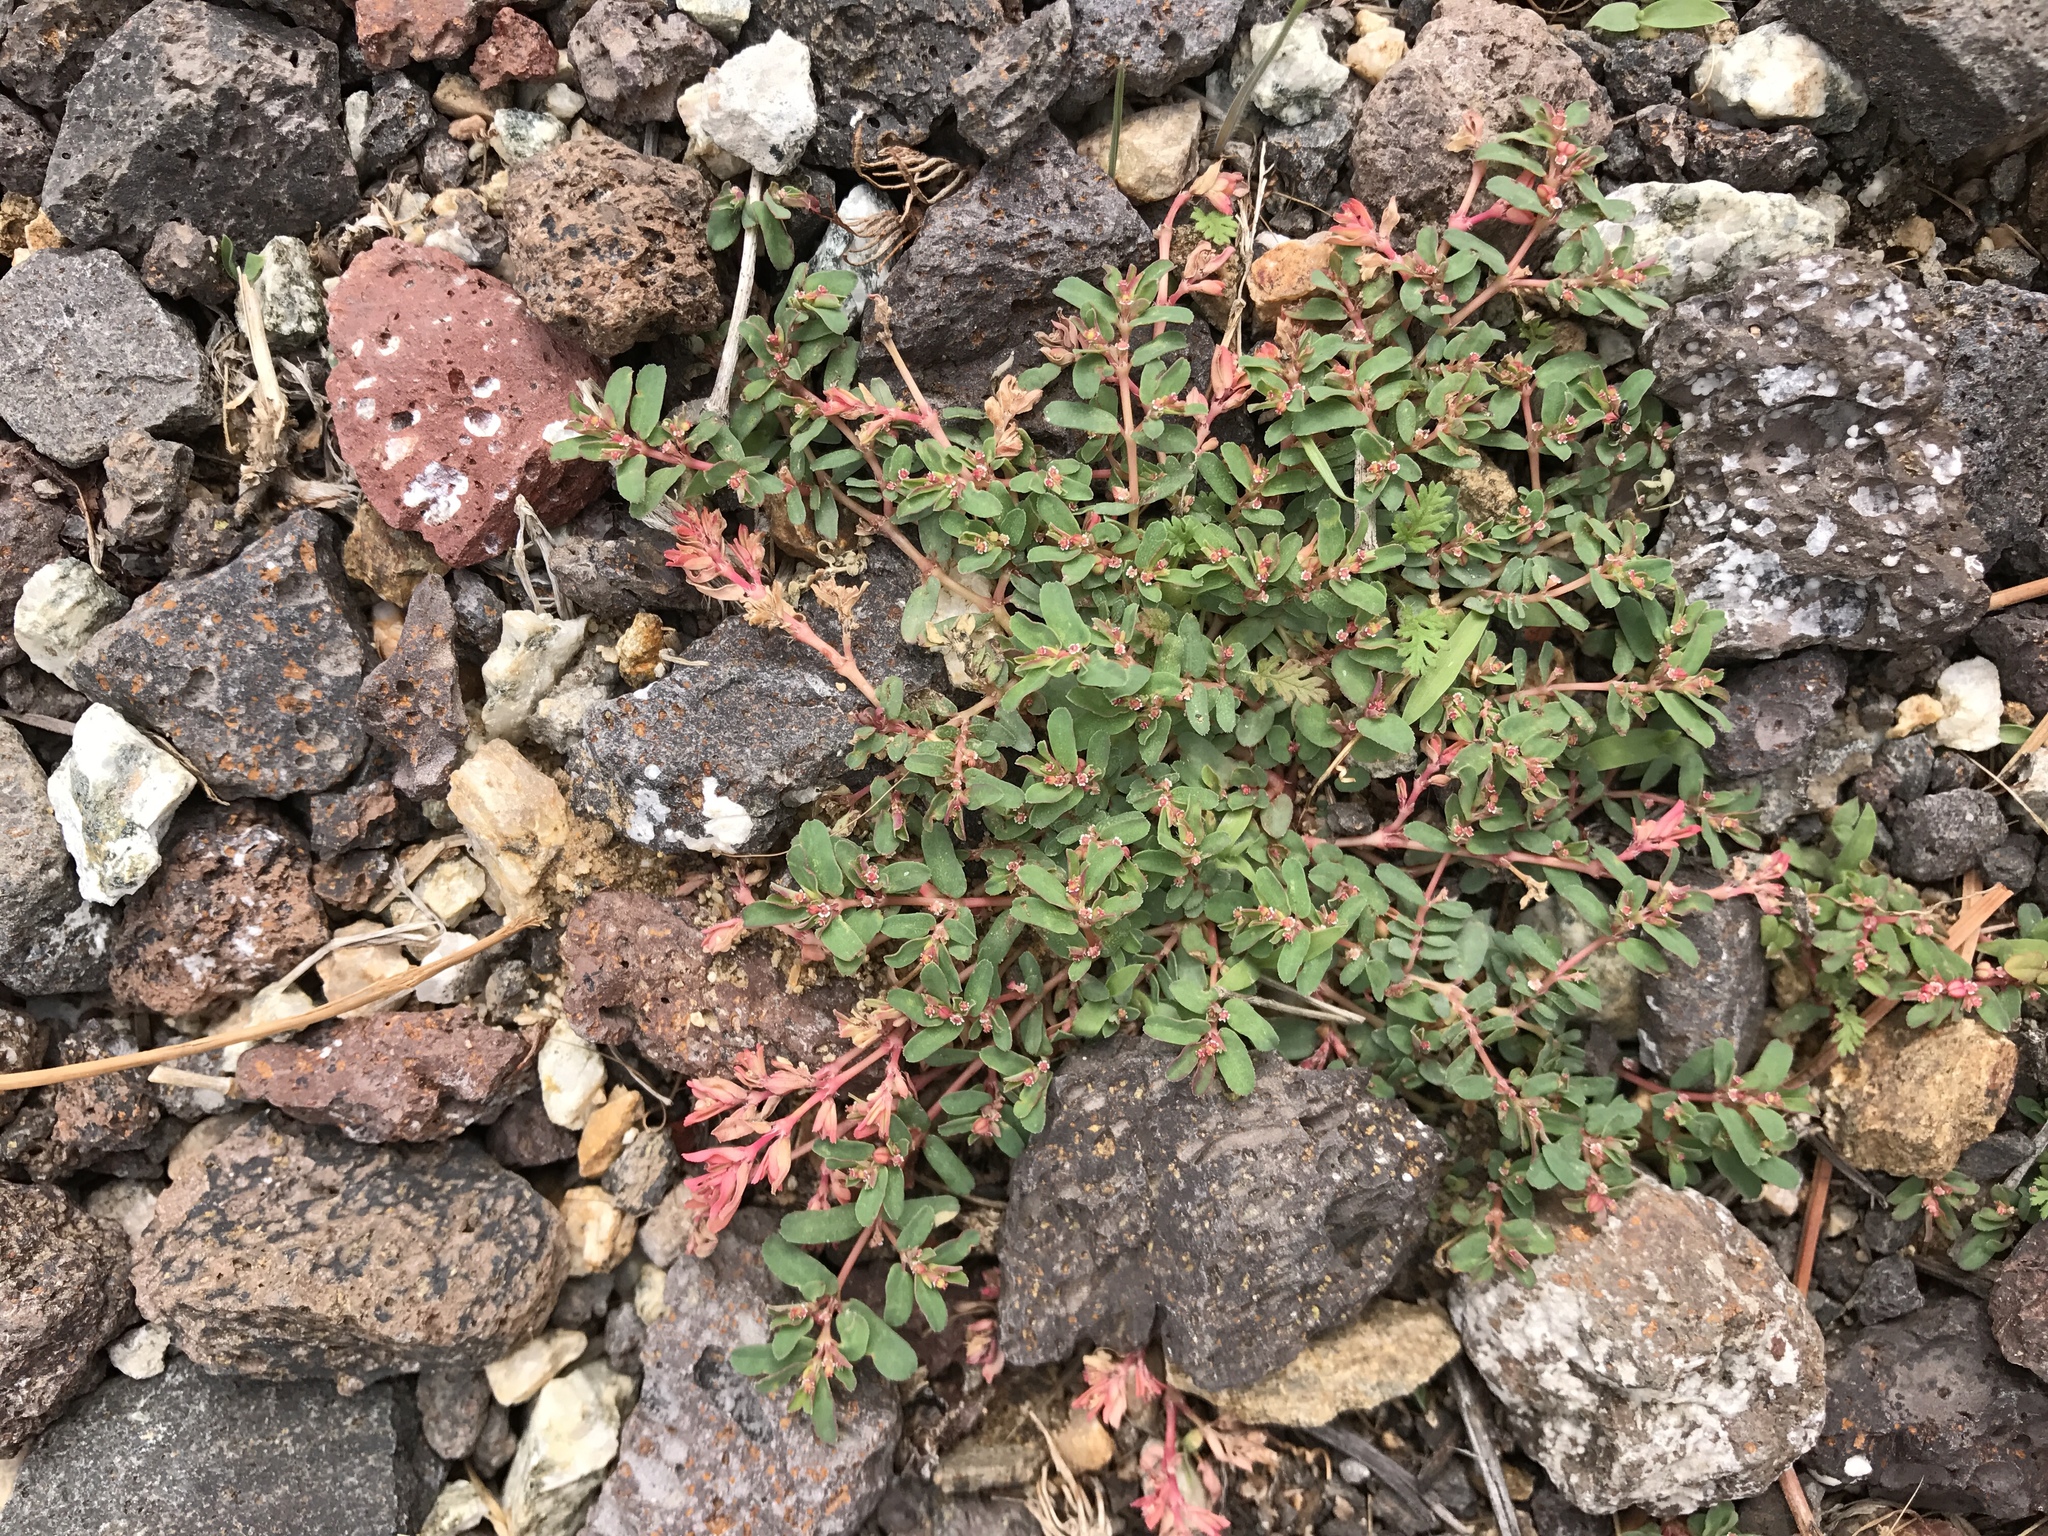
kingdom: Plantae
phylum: Tracheophyta
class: Magnoliopsida
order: Malpighiales
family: Euphorbiaceae
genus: Euphorbia
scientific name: Euphorbia glyptosperma
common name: Corrugate-seeded spurge
